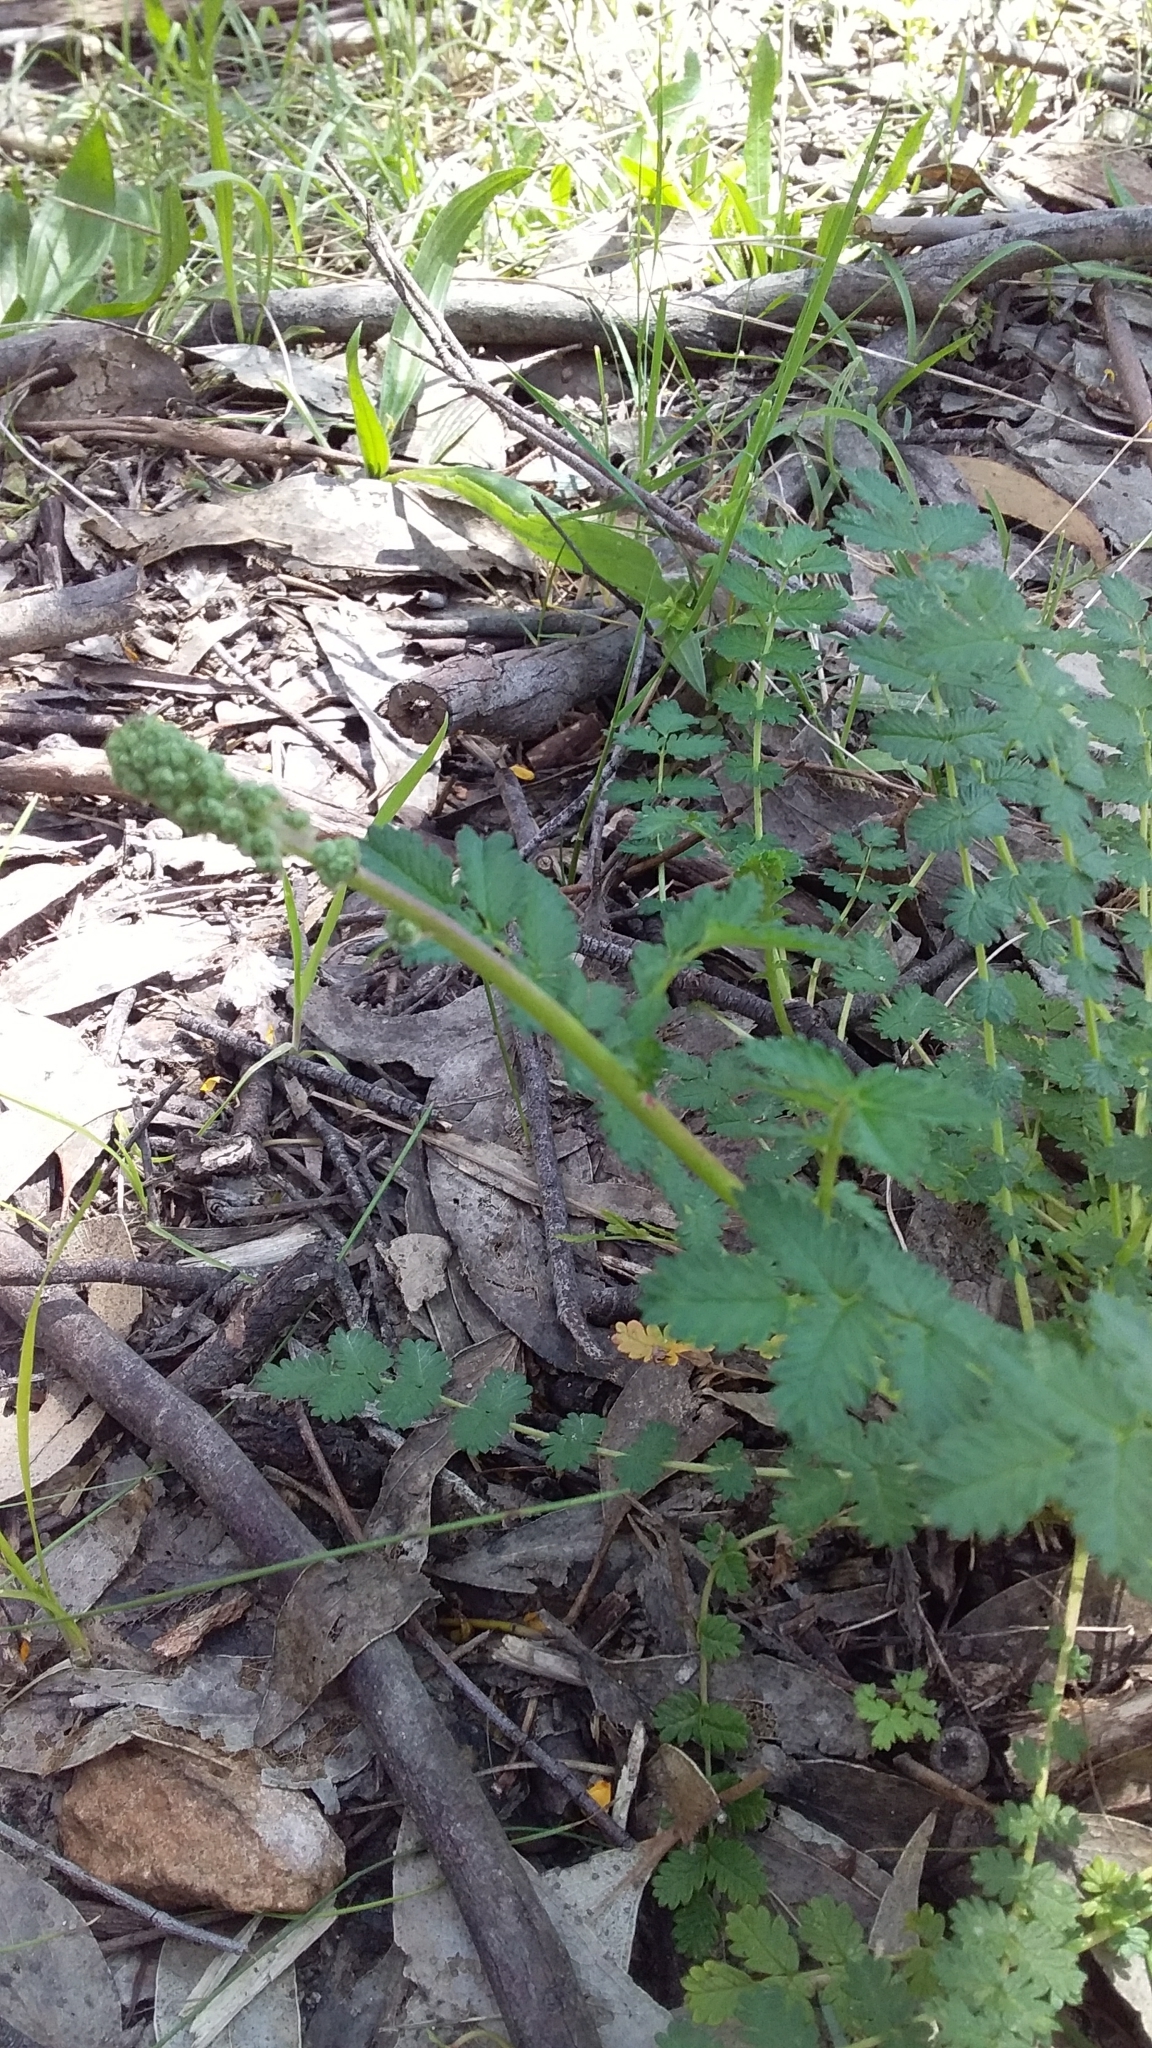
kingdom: Plantae
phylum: Tracheophyta
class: Magnoliopsida
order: Rosales
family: Rosaceae
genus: Acaena
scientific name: Acaena echinata
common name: Sheepbur
